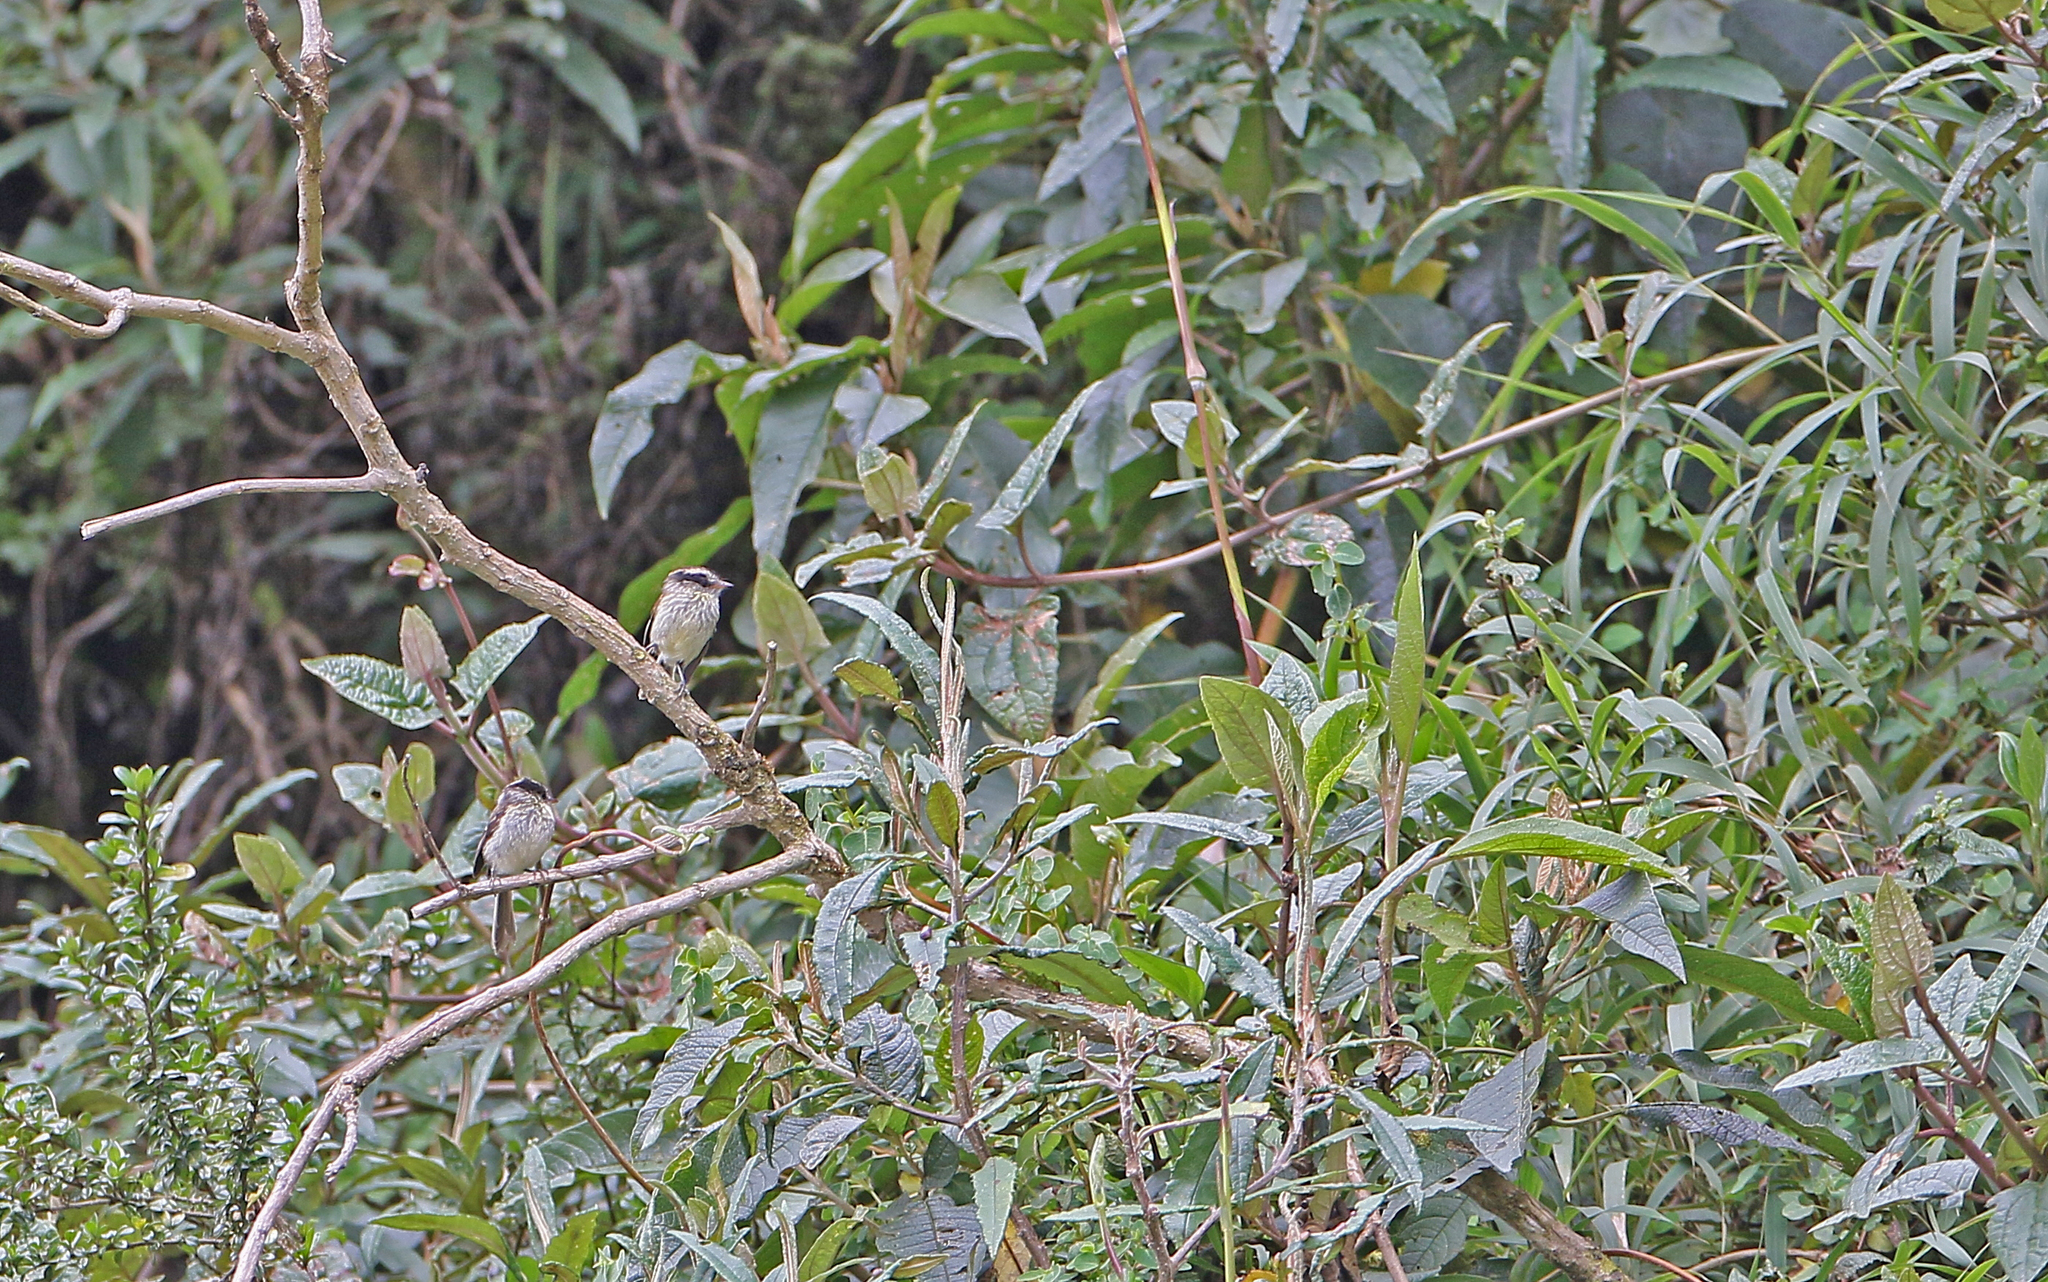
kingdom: Animalia
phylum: Chordata
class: Aves
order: Passeriformes
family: Tyrannidae
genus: Anairetes
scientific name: Anairetes agilis
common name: Agile tit-tyrant
